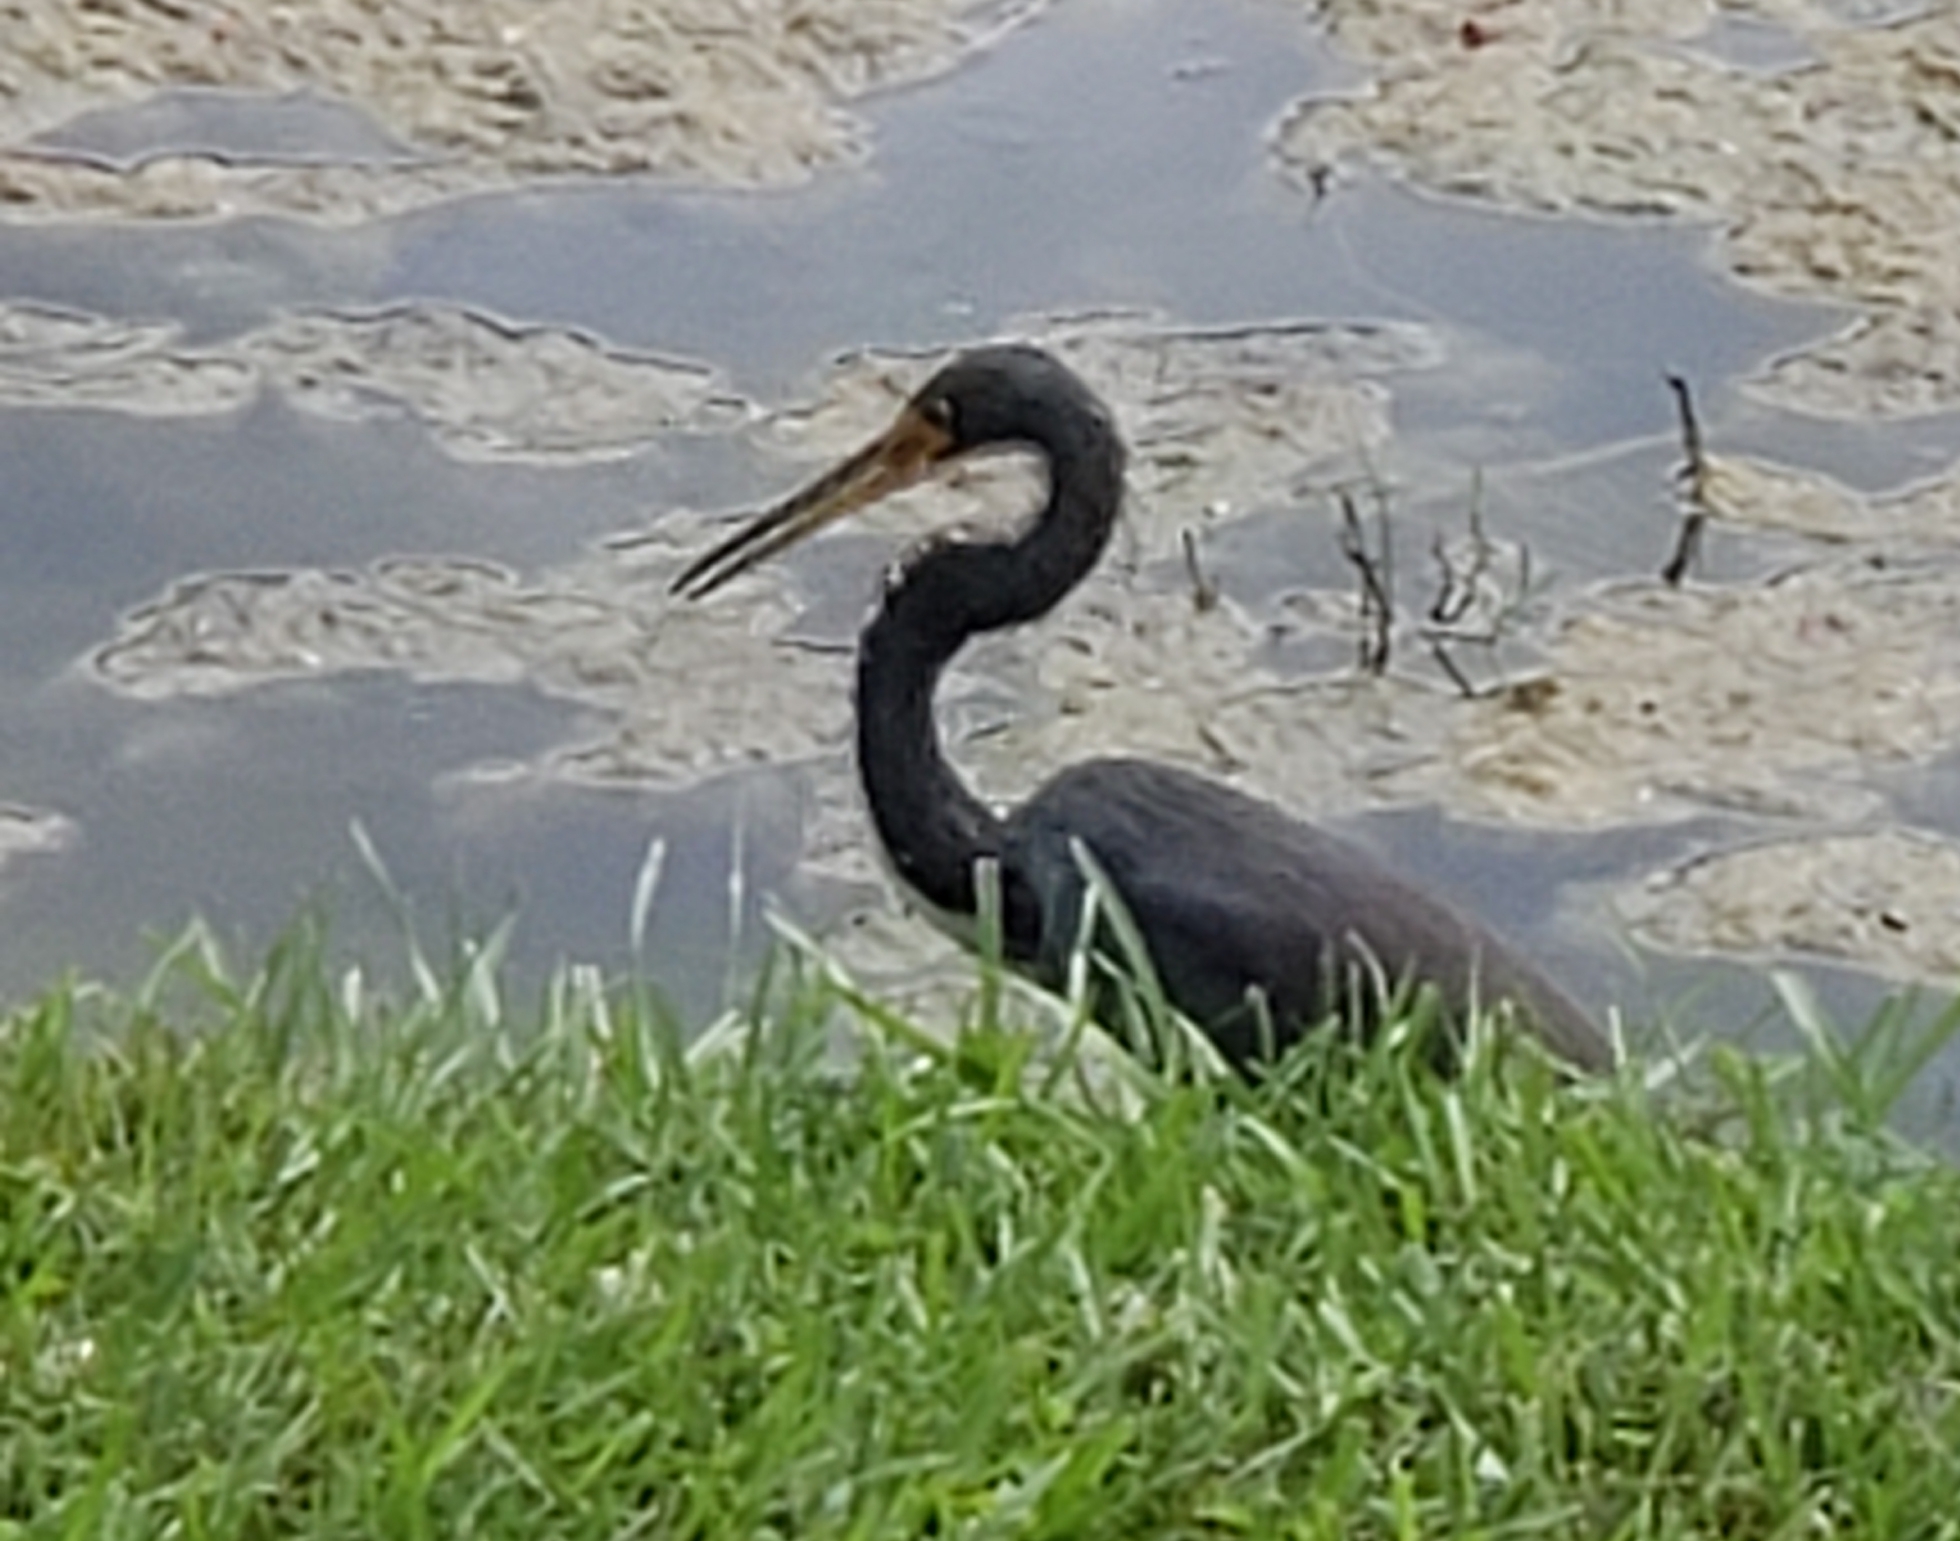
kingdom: Animalia
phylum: Chordata
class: Aves
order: Pelecaniformes
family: Ardeidae
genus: Egretta
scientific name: Egretta tricolor
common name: Tricolored heron
